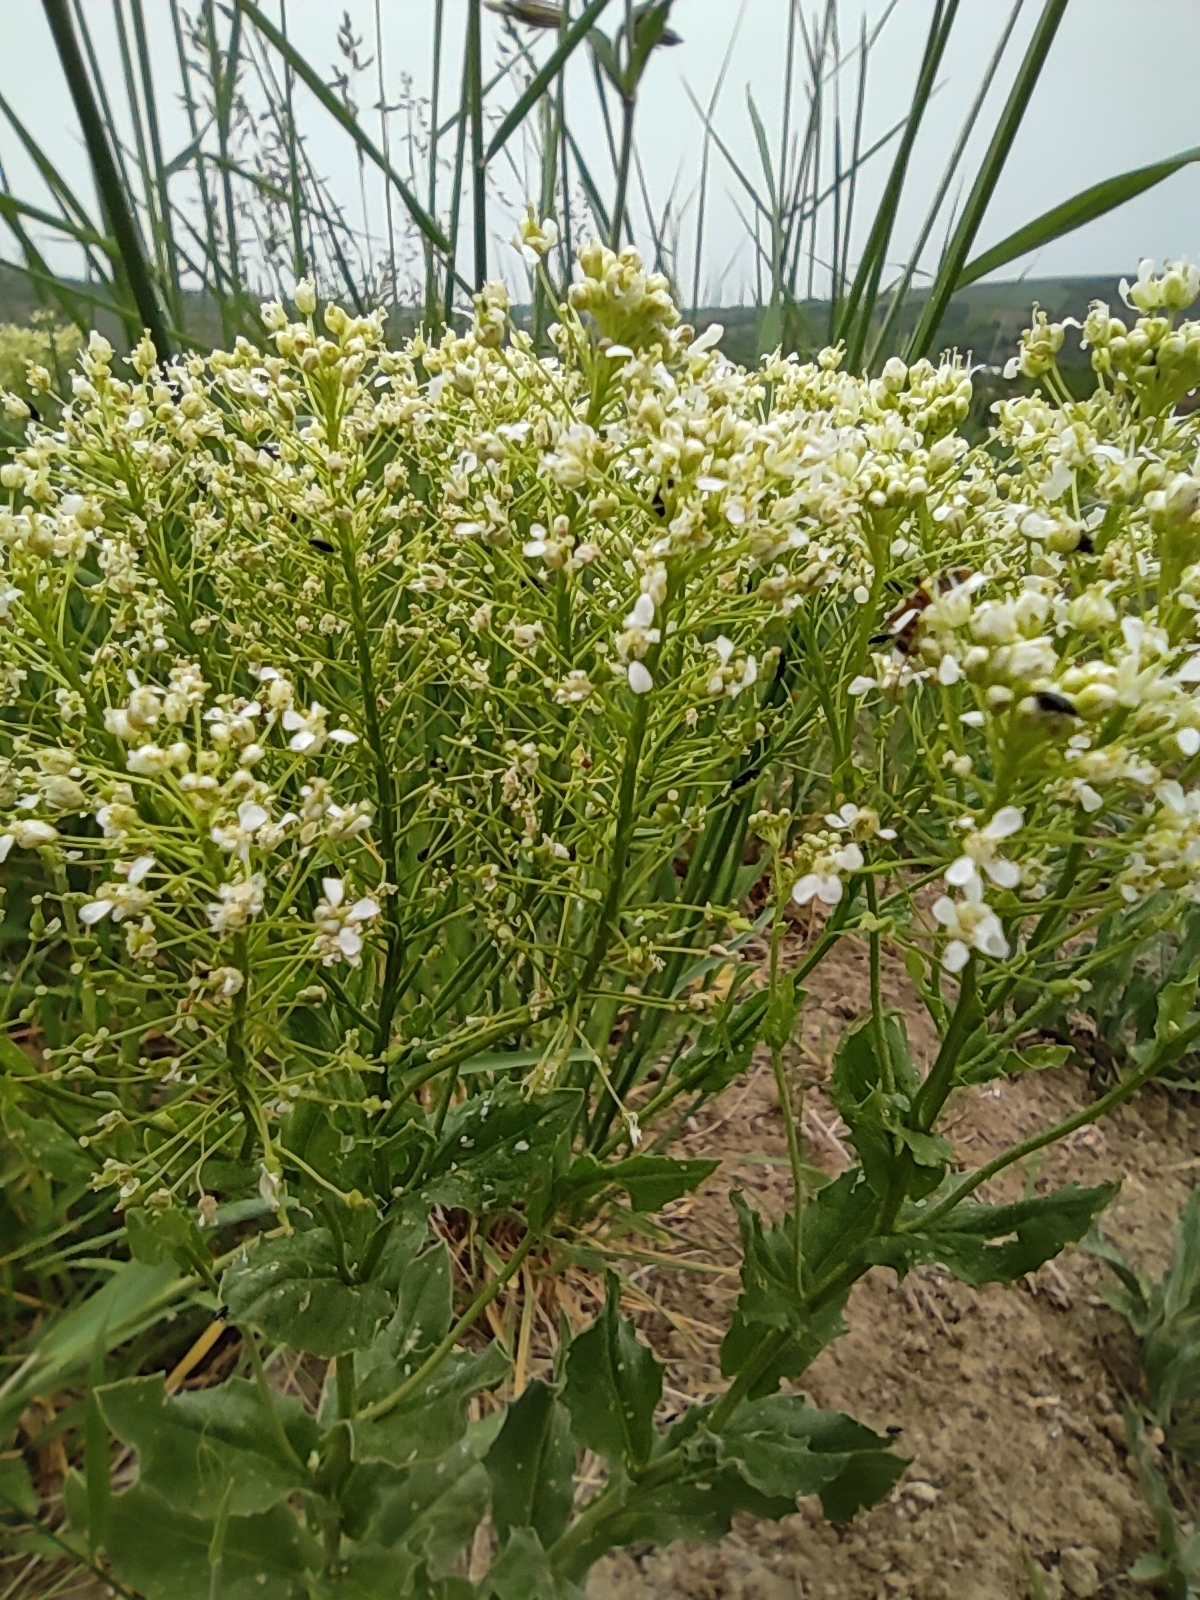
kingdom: Plantae
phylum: Tracheophyta
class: Magnoliopsida
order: Brassicales
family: Brassicaceae
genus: Lepidium
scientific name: Lepidium draba
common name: Hoary cress
